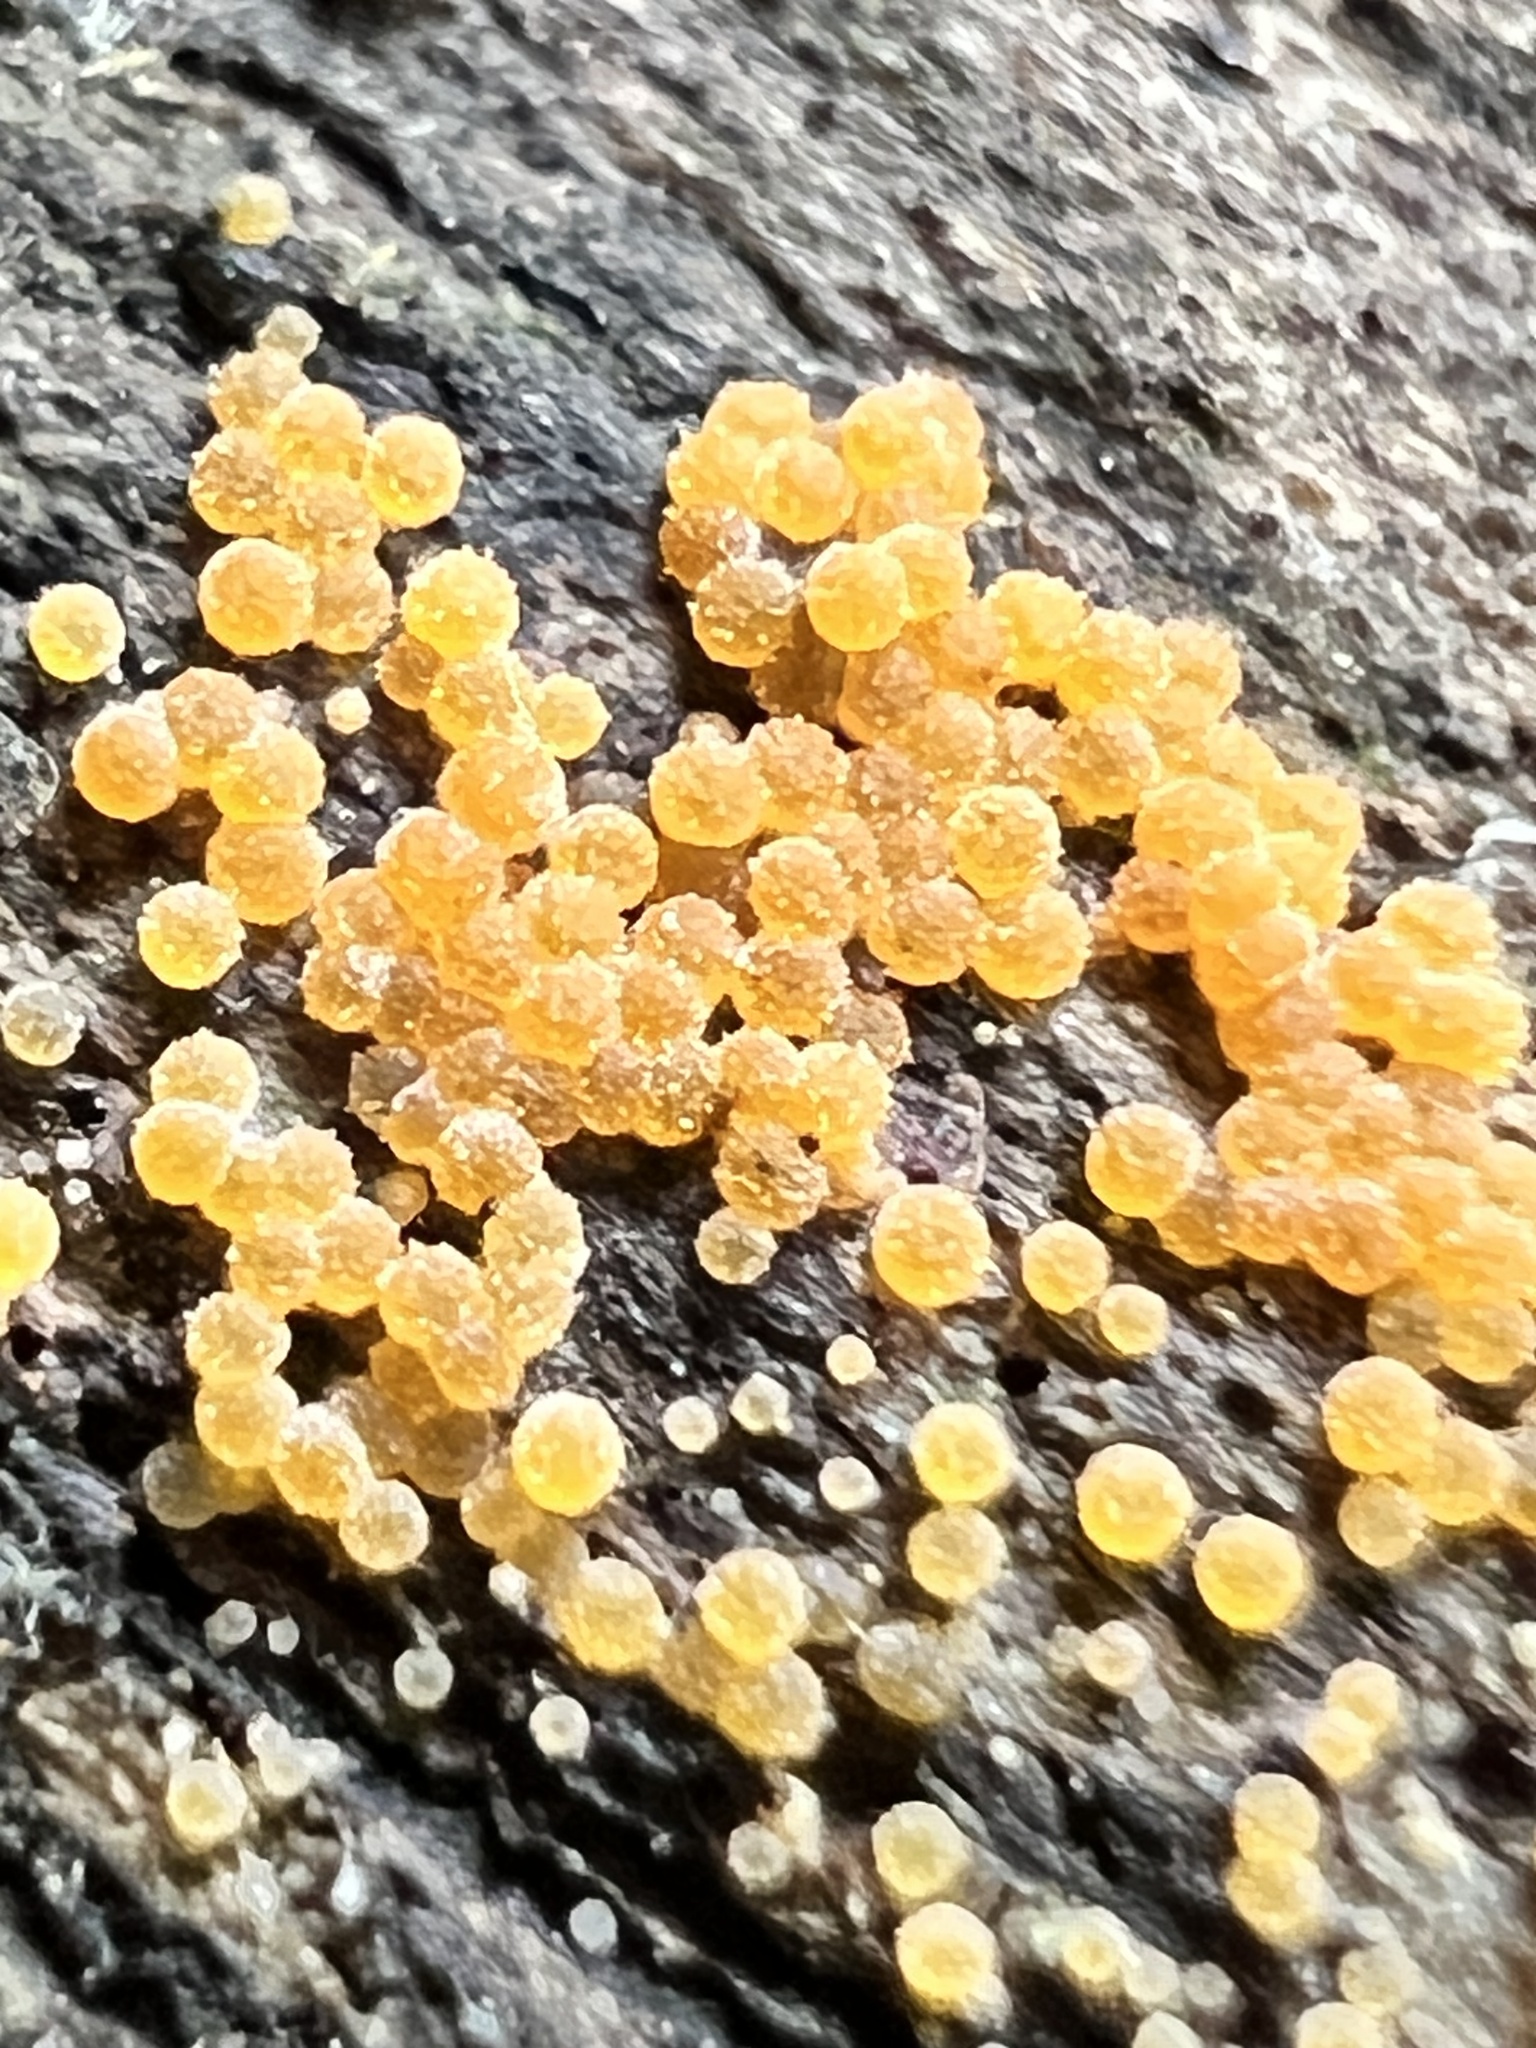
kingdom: Fungi
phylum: Ascomycota
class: Sordariomycetes
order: Hypocreales
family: Nectriaceae
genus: Hydropisphaera
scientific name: Hydropisphaera peziza
